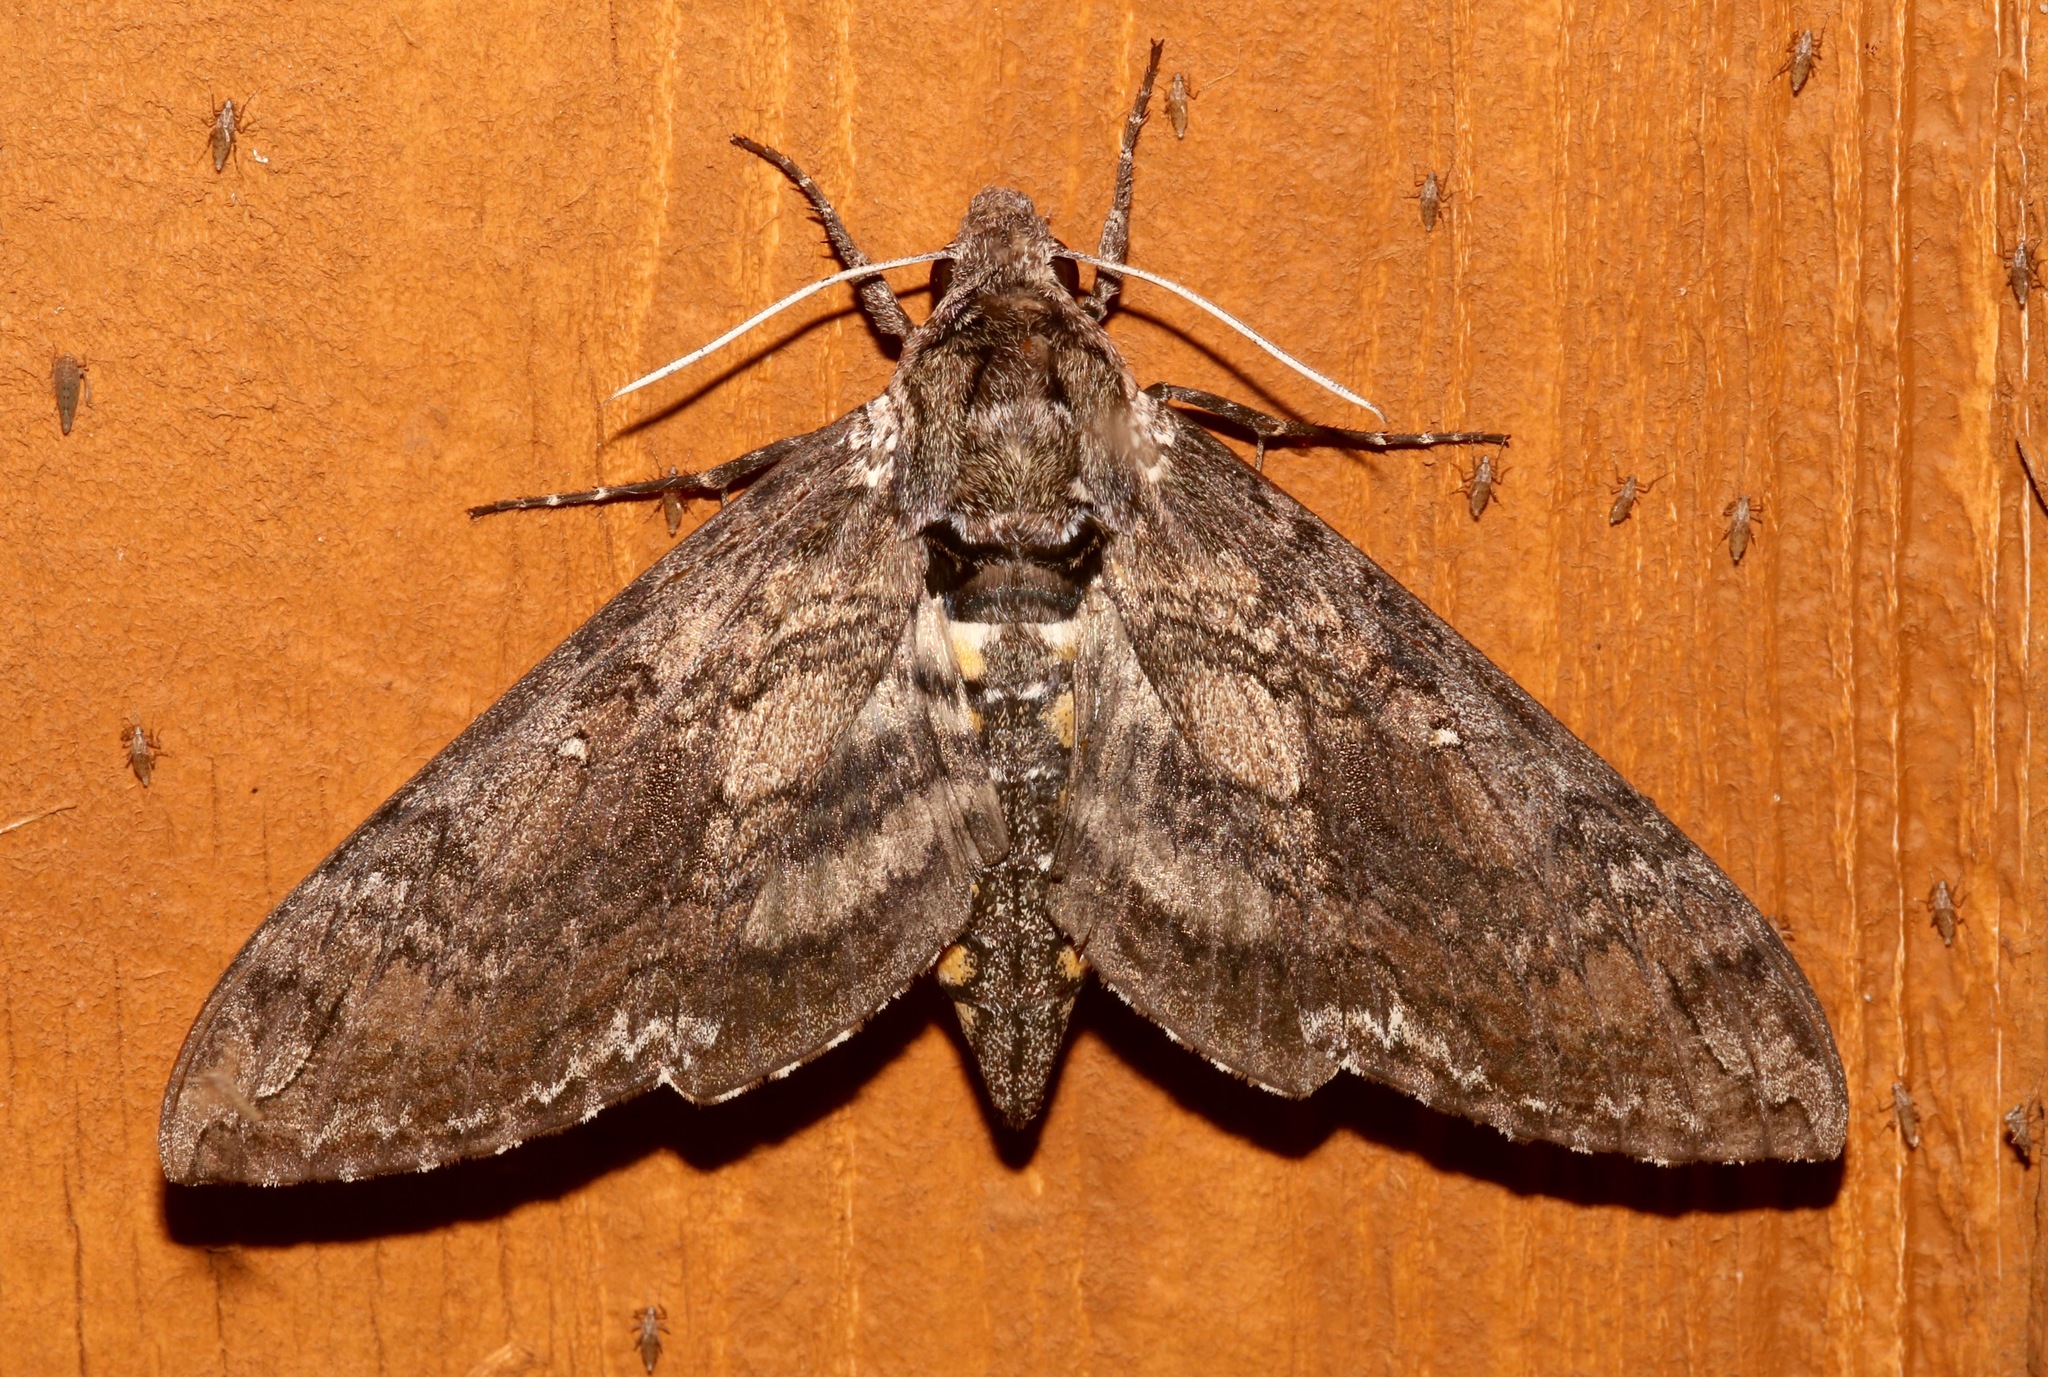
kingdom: Animalia
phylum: Arthropoda
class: Insecta
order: Lepidoptera
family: Sphingidae
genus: Manduca
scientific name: Manduca sexta
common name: Carolina sphinx
